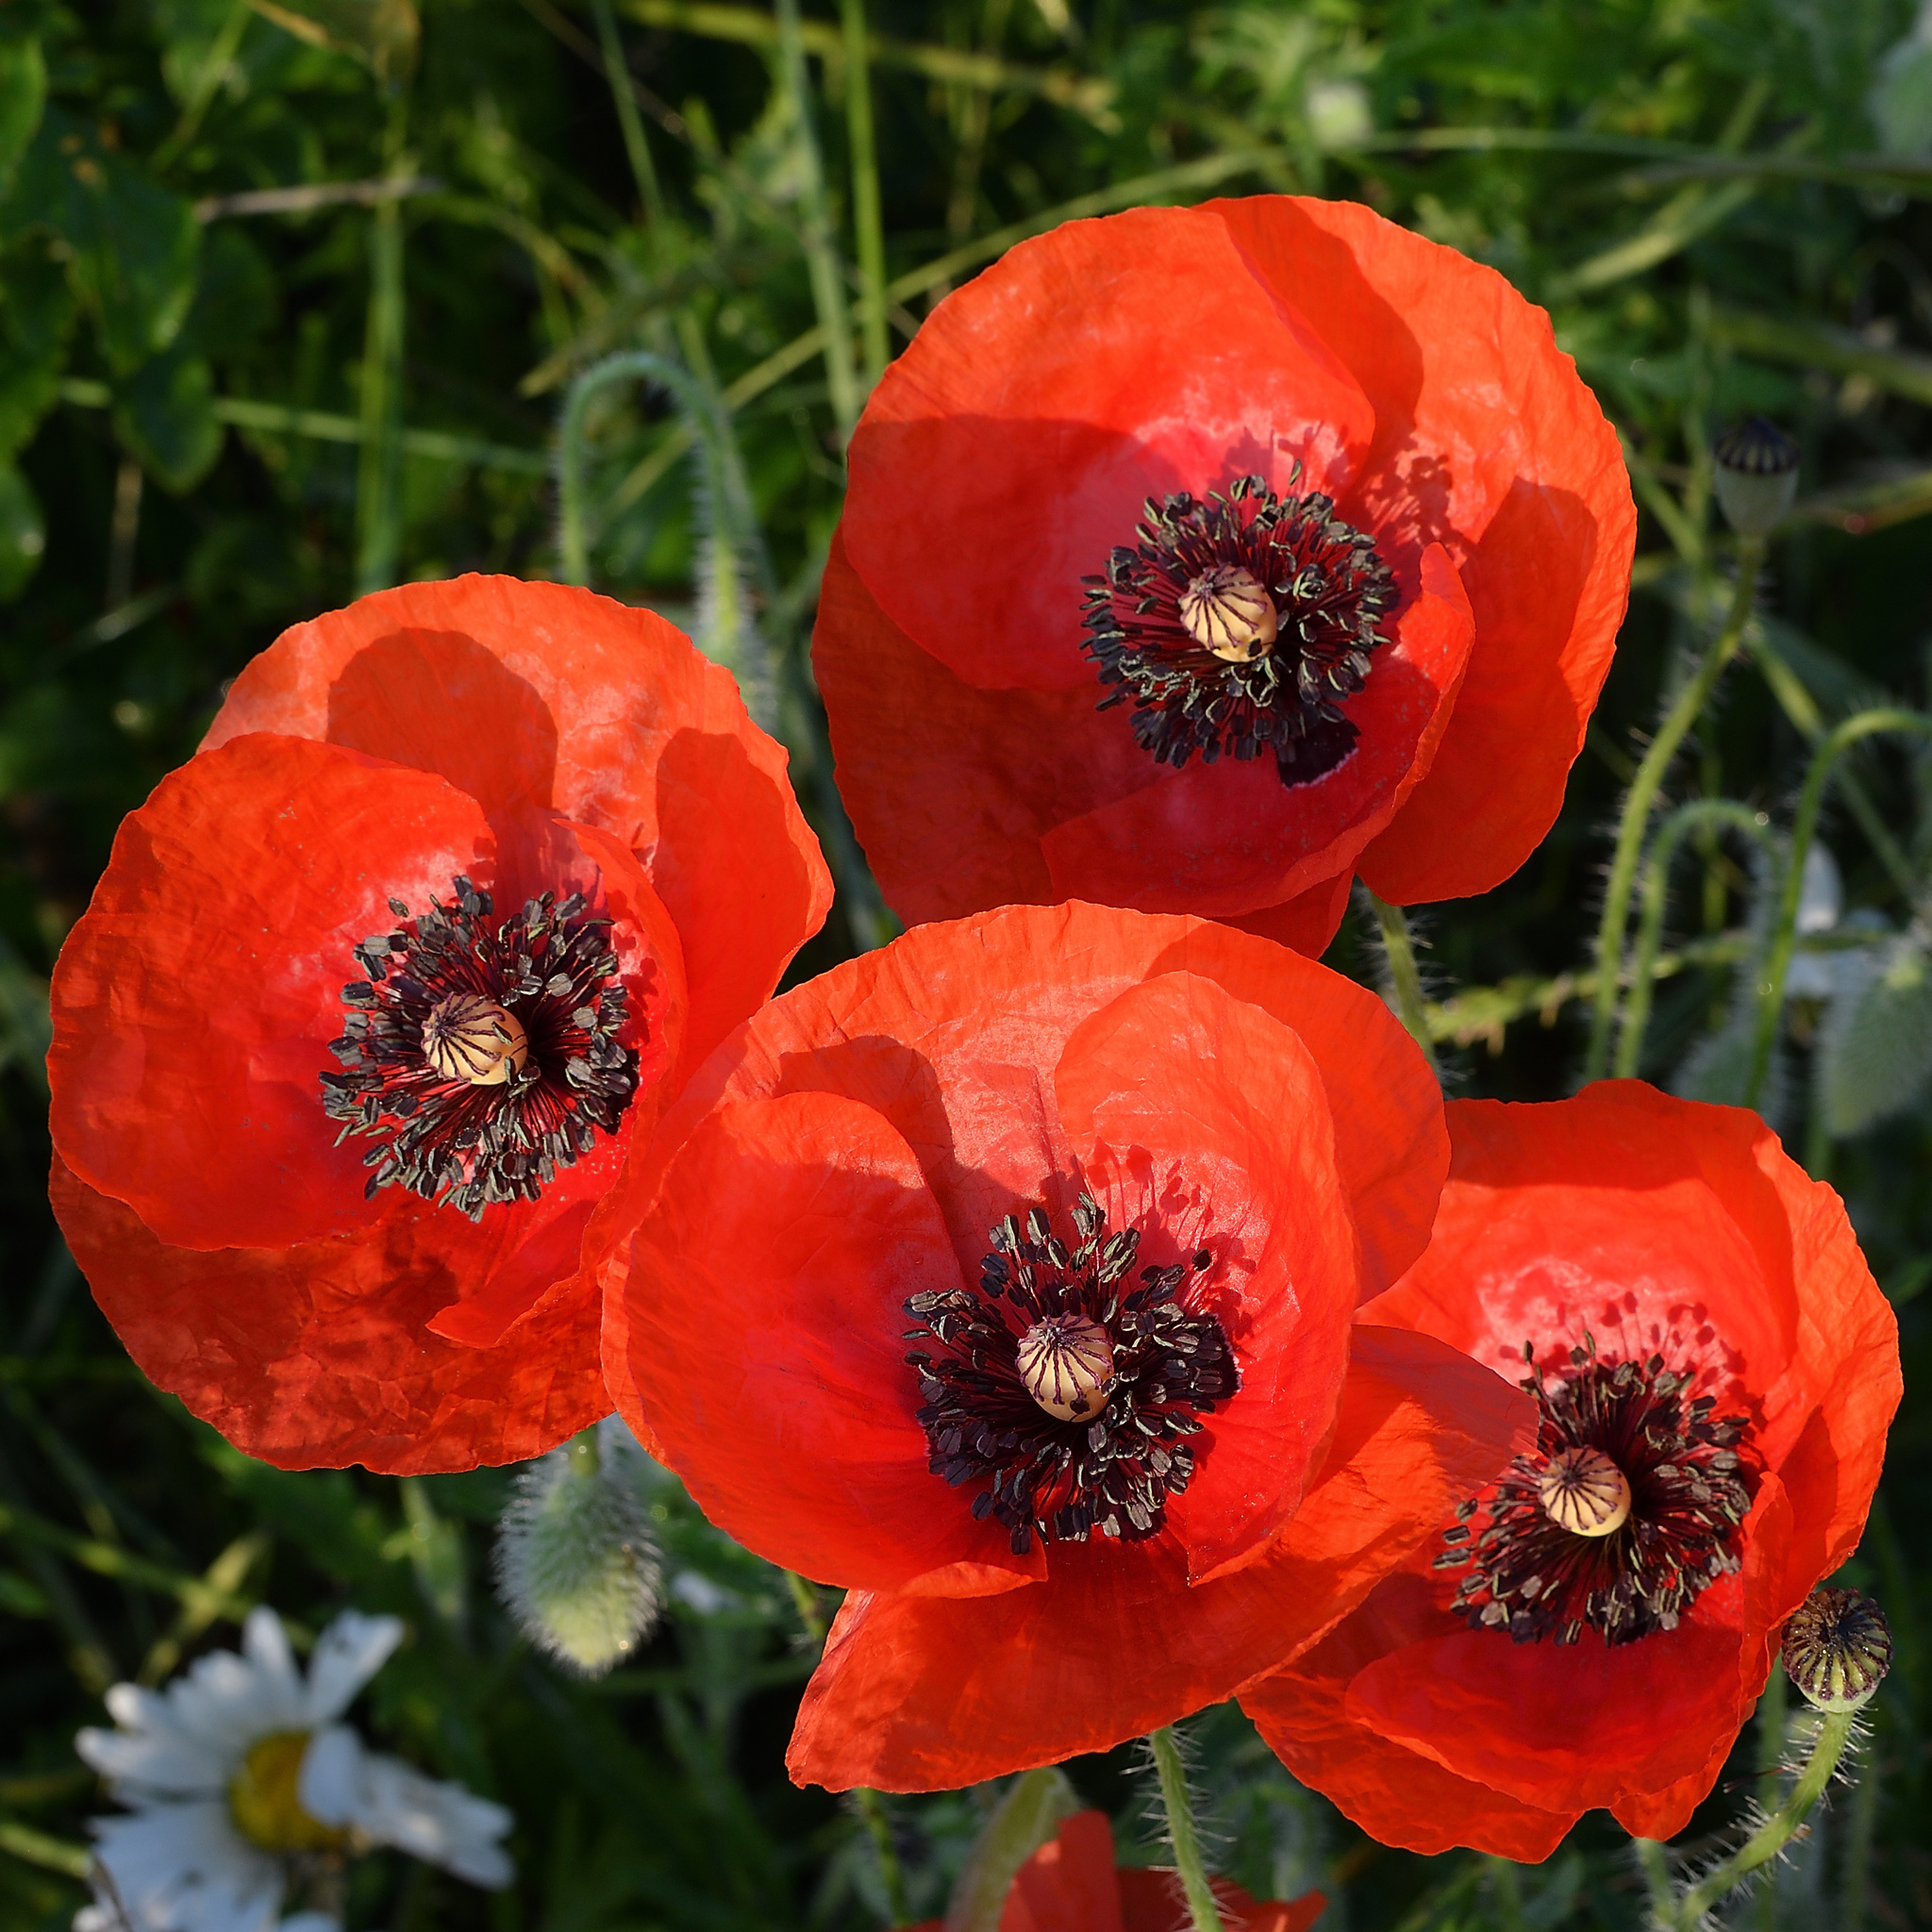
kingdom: Plantae
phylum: Tracheophyta
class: Magnoliopsida
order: Ranunculales
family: Papaveraceae
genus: Papaver
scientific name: Papaver rhoeas
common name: Corn poppy
